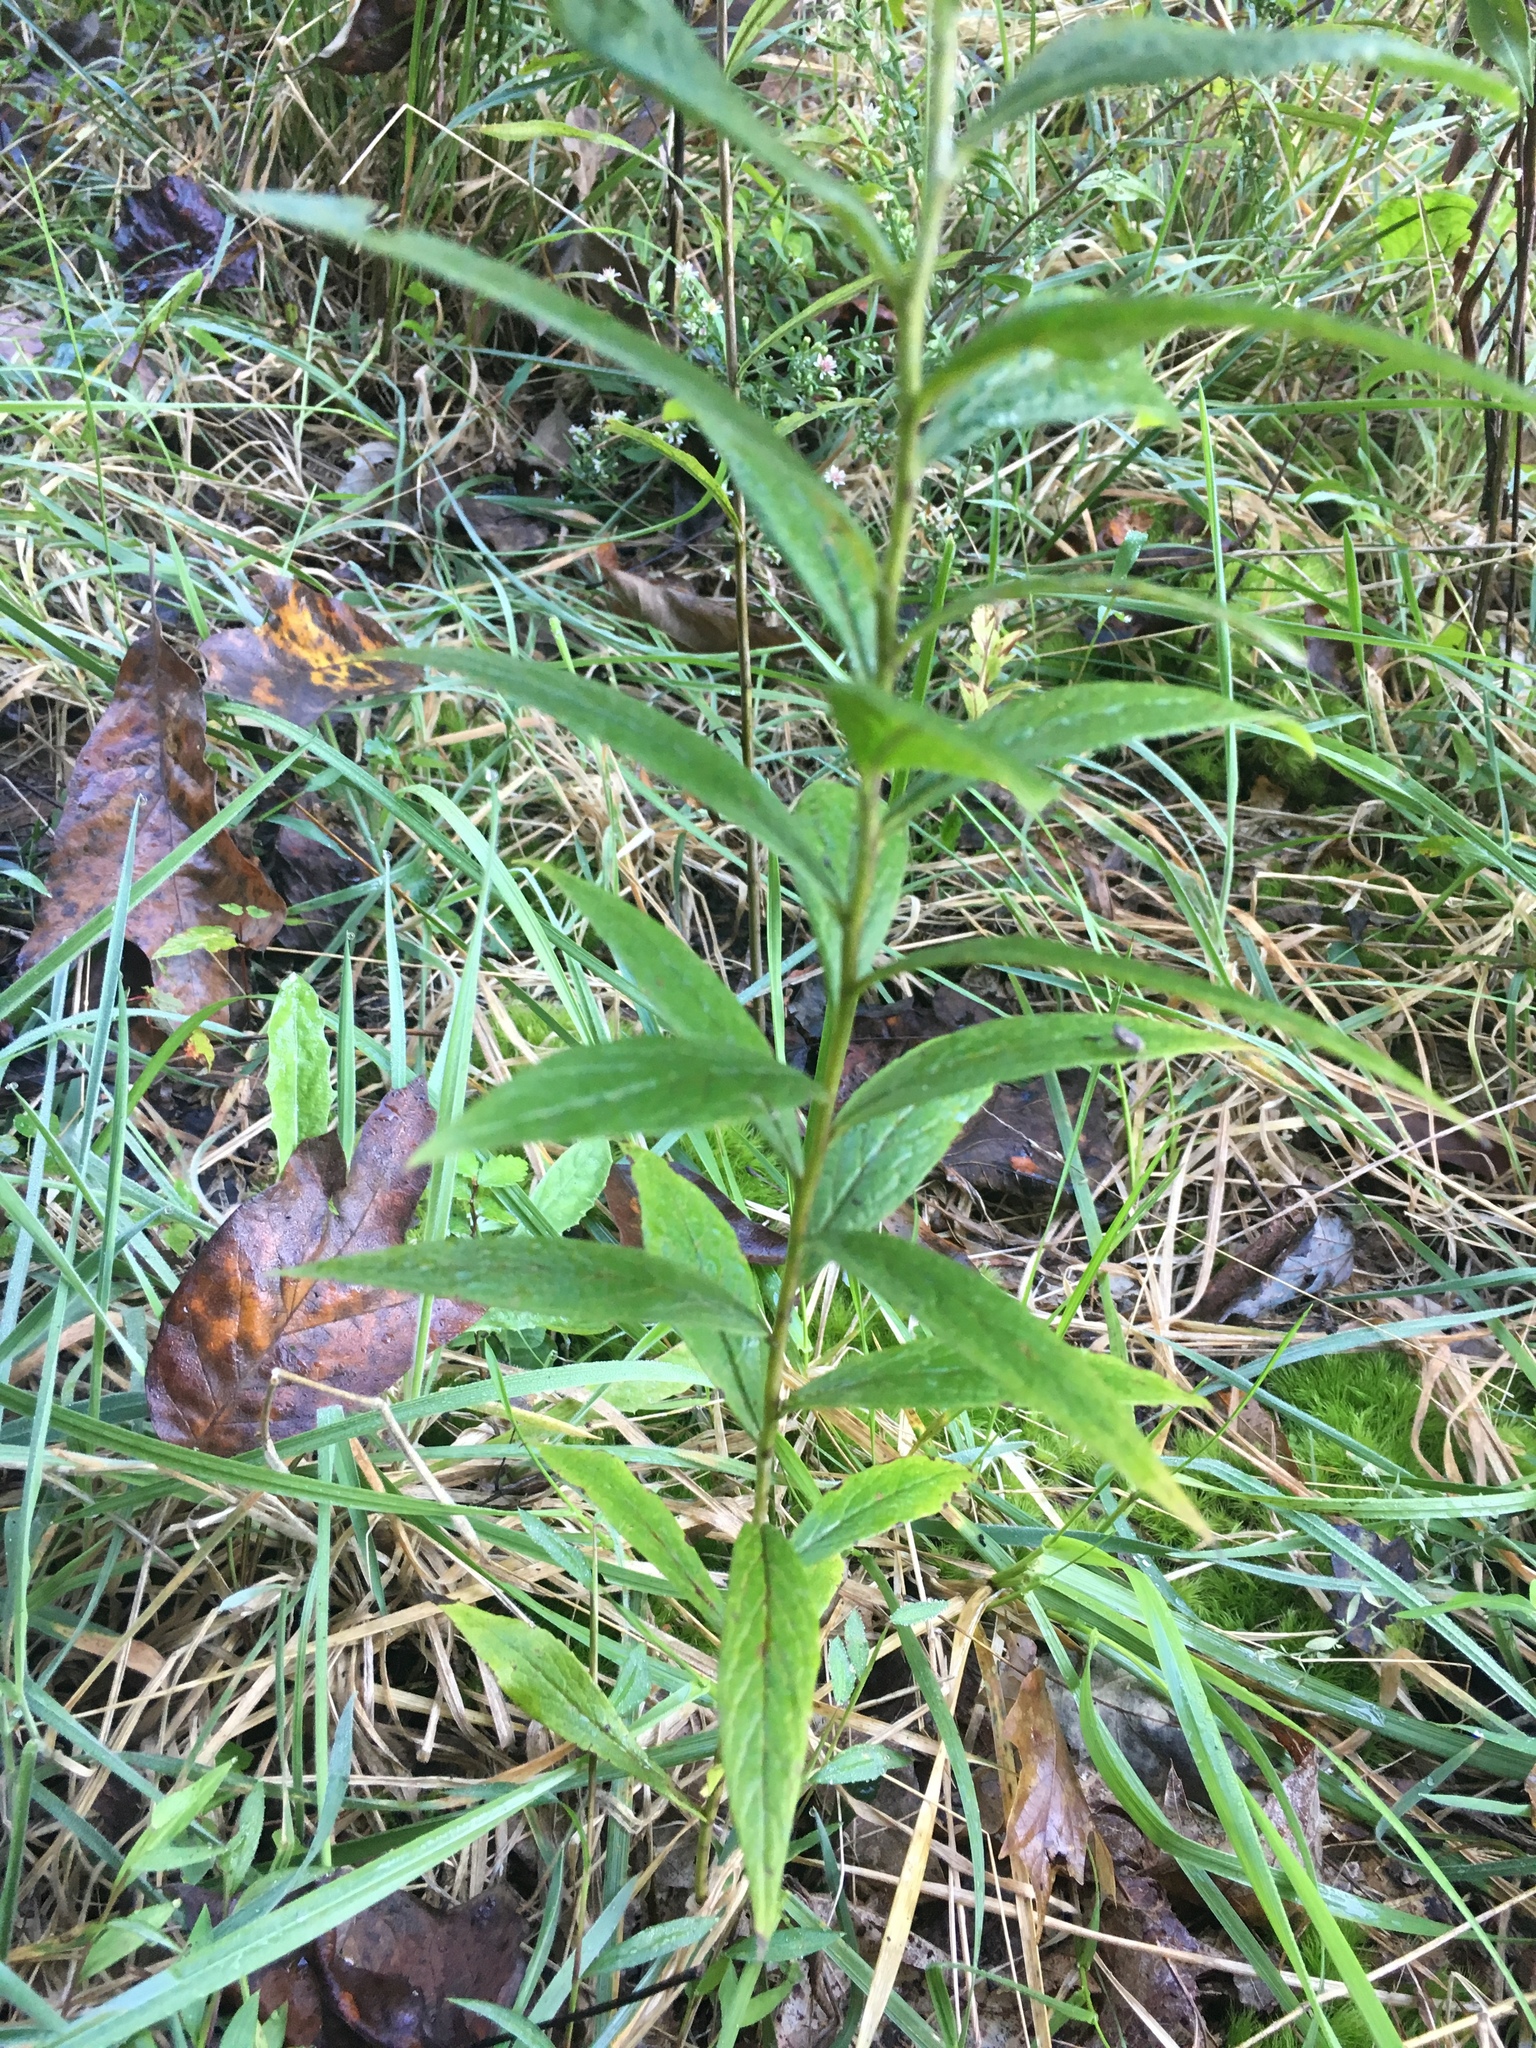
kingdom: Plantae
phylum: Tracheophyta
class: Magnoliopsida
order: Asterales
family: Asteraceae
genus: Solidago
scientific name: Solidago rugosa
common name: Rough-stemmed goldenrod
